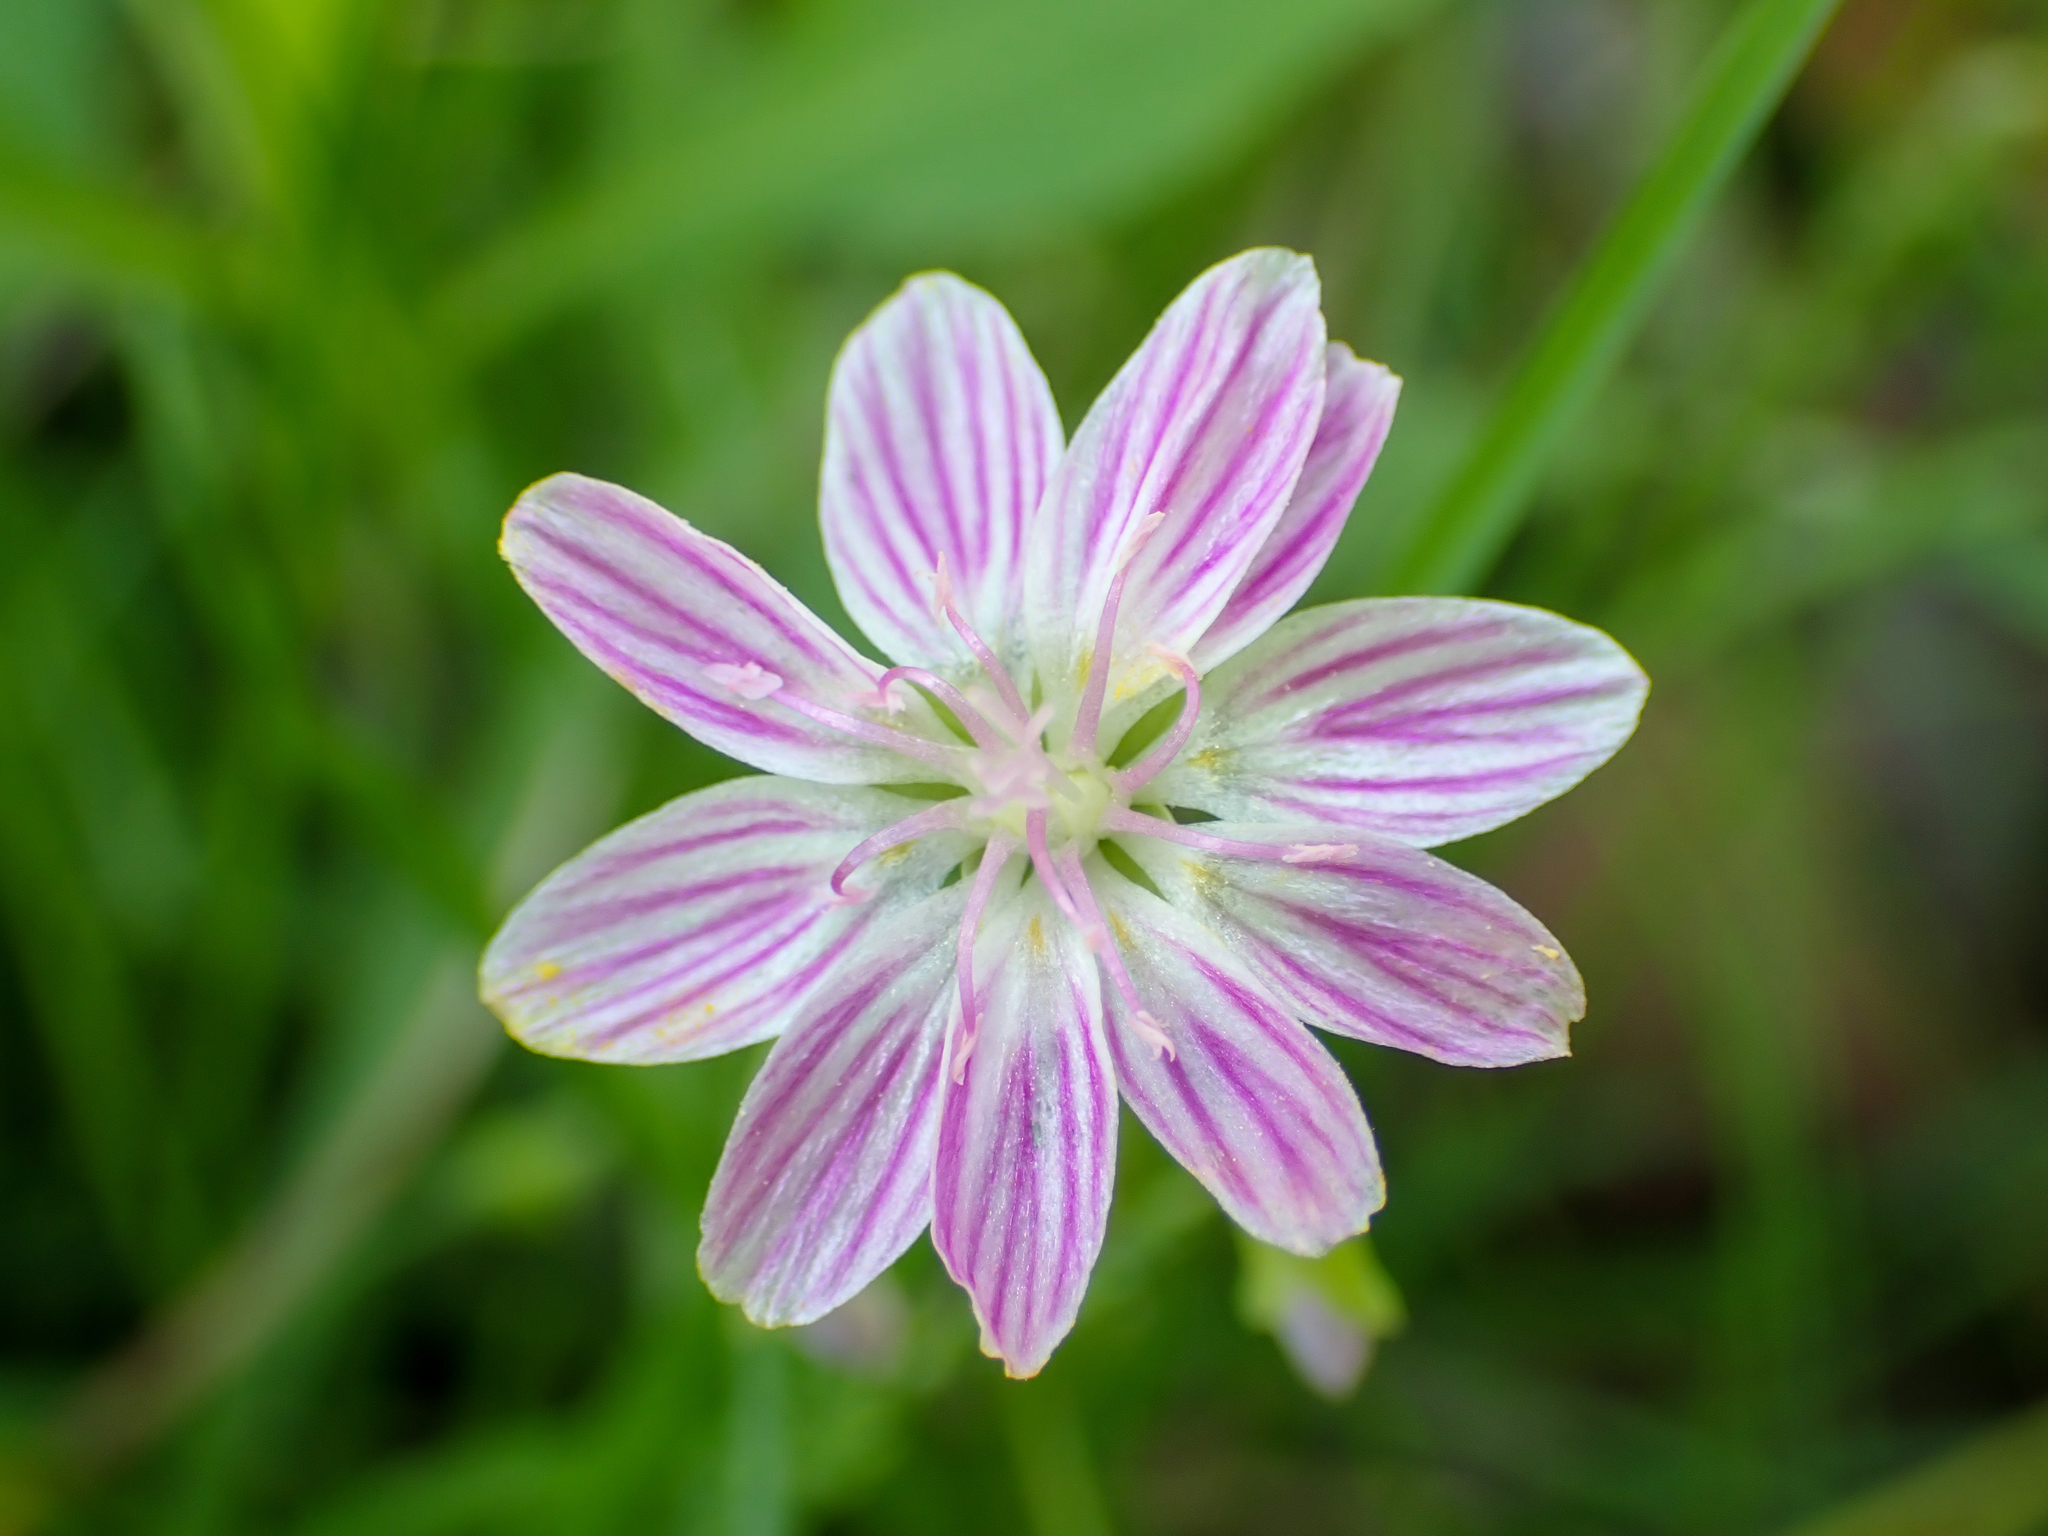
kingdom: Plantae
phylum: Tracheophyta
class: Magnoliopsida
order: Caryophyllales
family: Montiaceae
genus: Claytonia
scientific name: Claytonia virginica
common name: Virginia springbeauty
